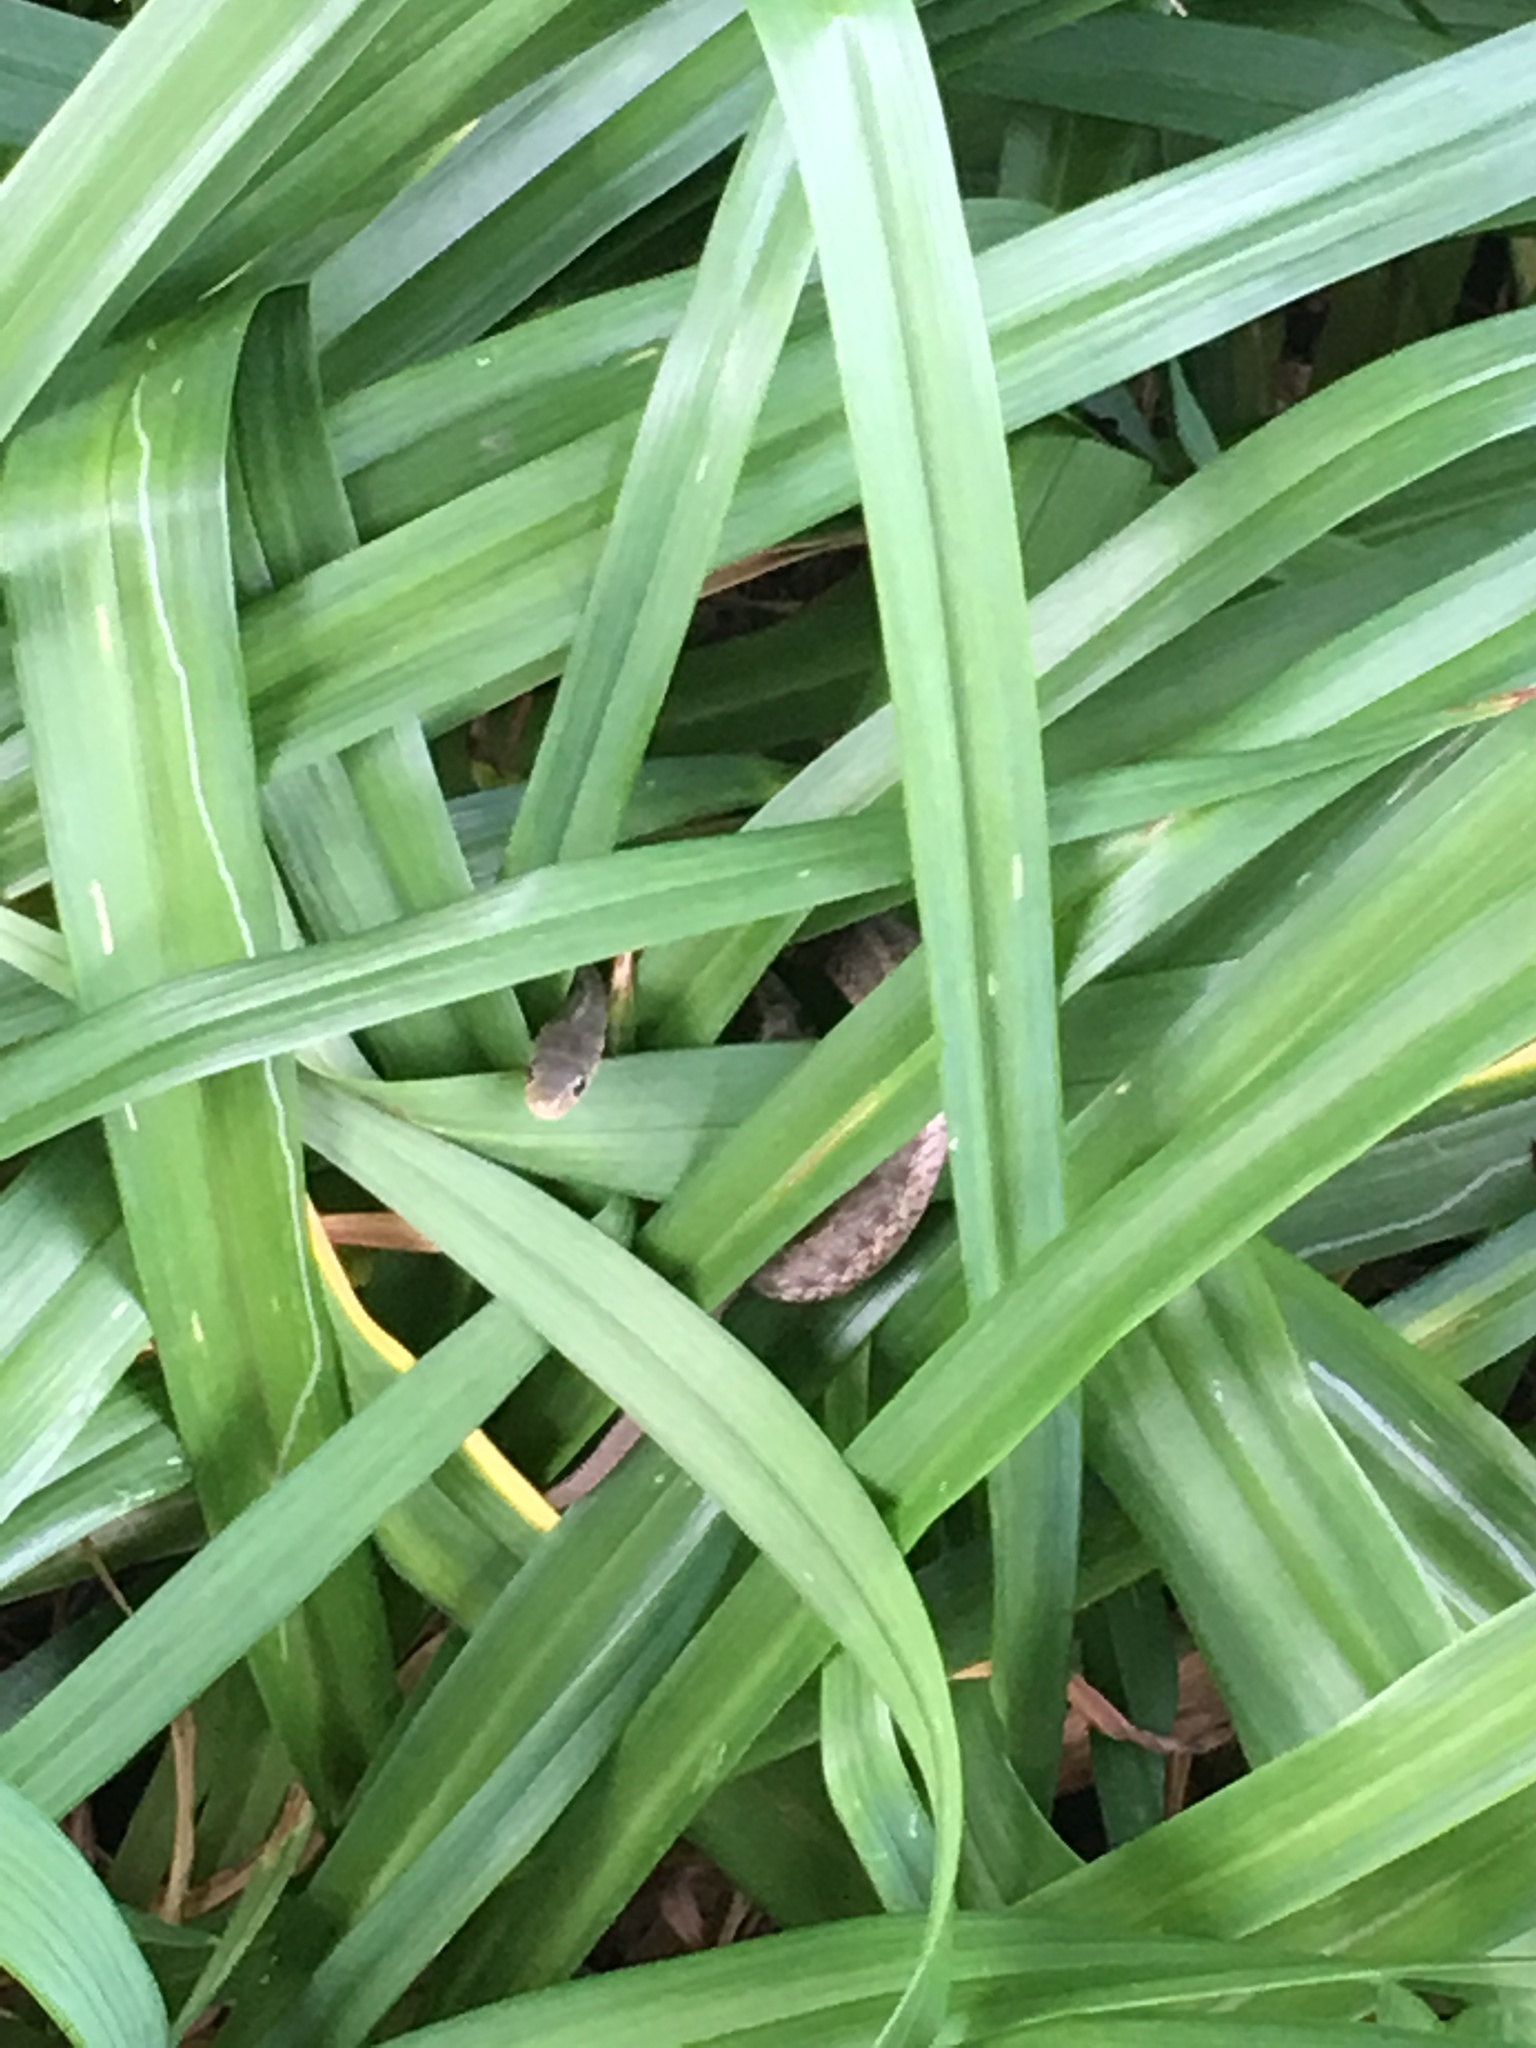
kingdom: Animalia
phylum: Chordata
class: Squamata
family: Colubridae
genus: Thamnophis
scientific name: Thamnophis sirtalis
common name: Common garter snake
